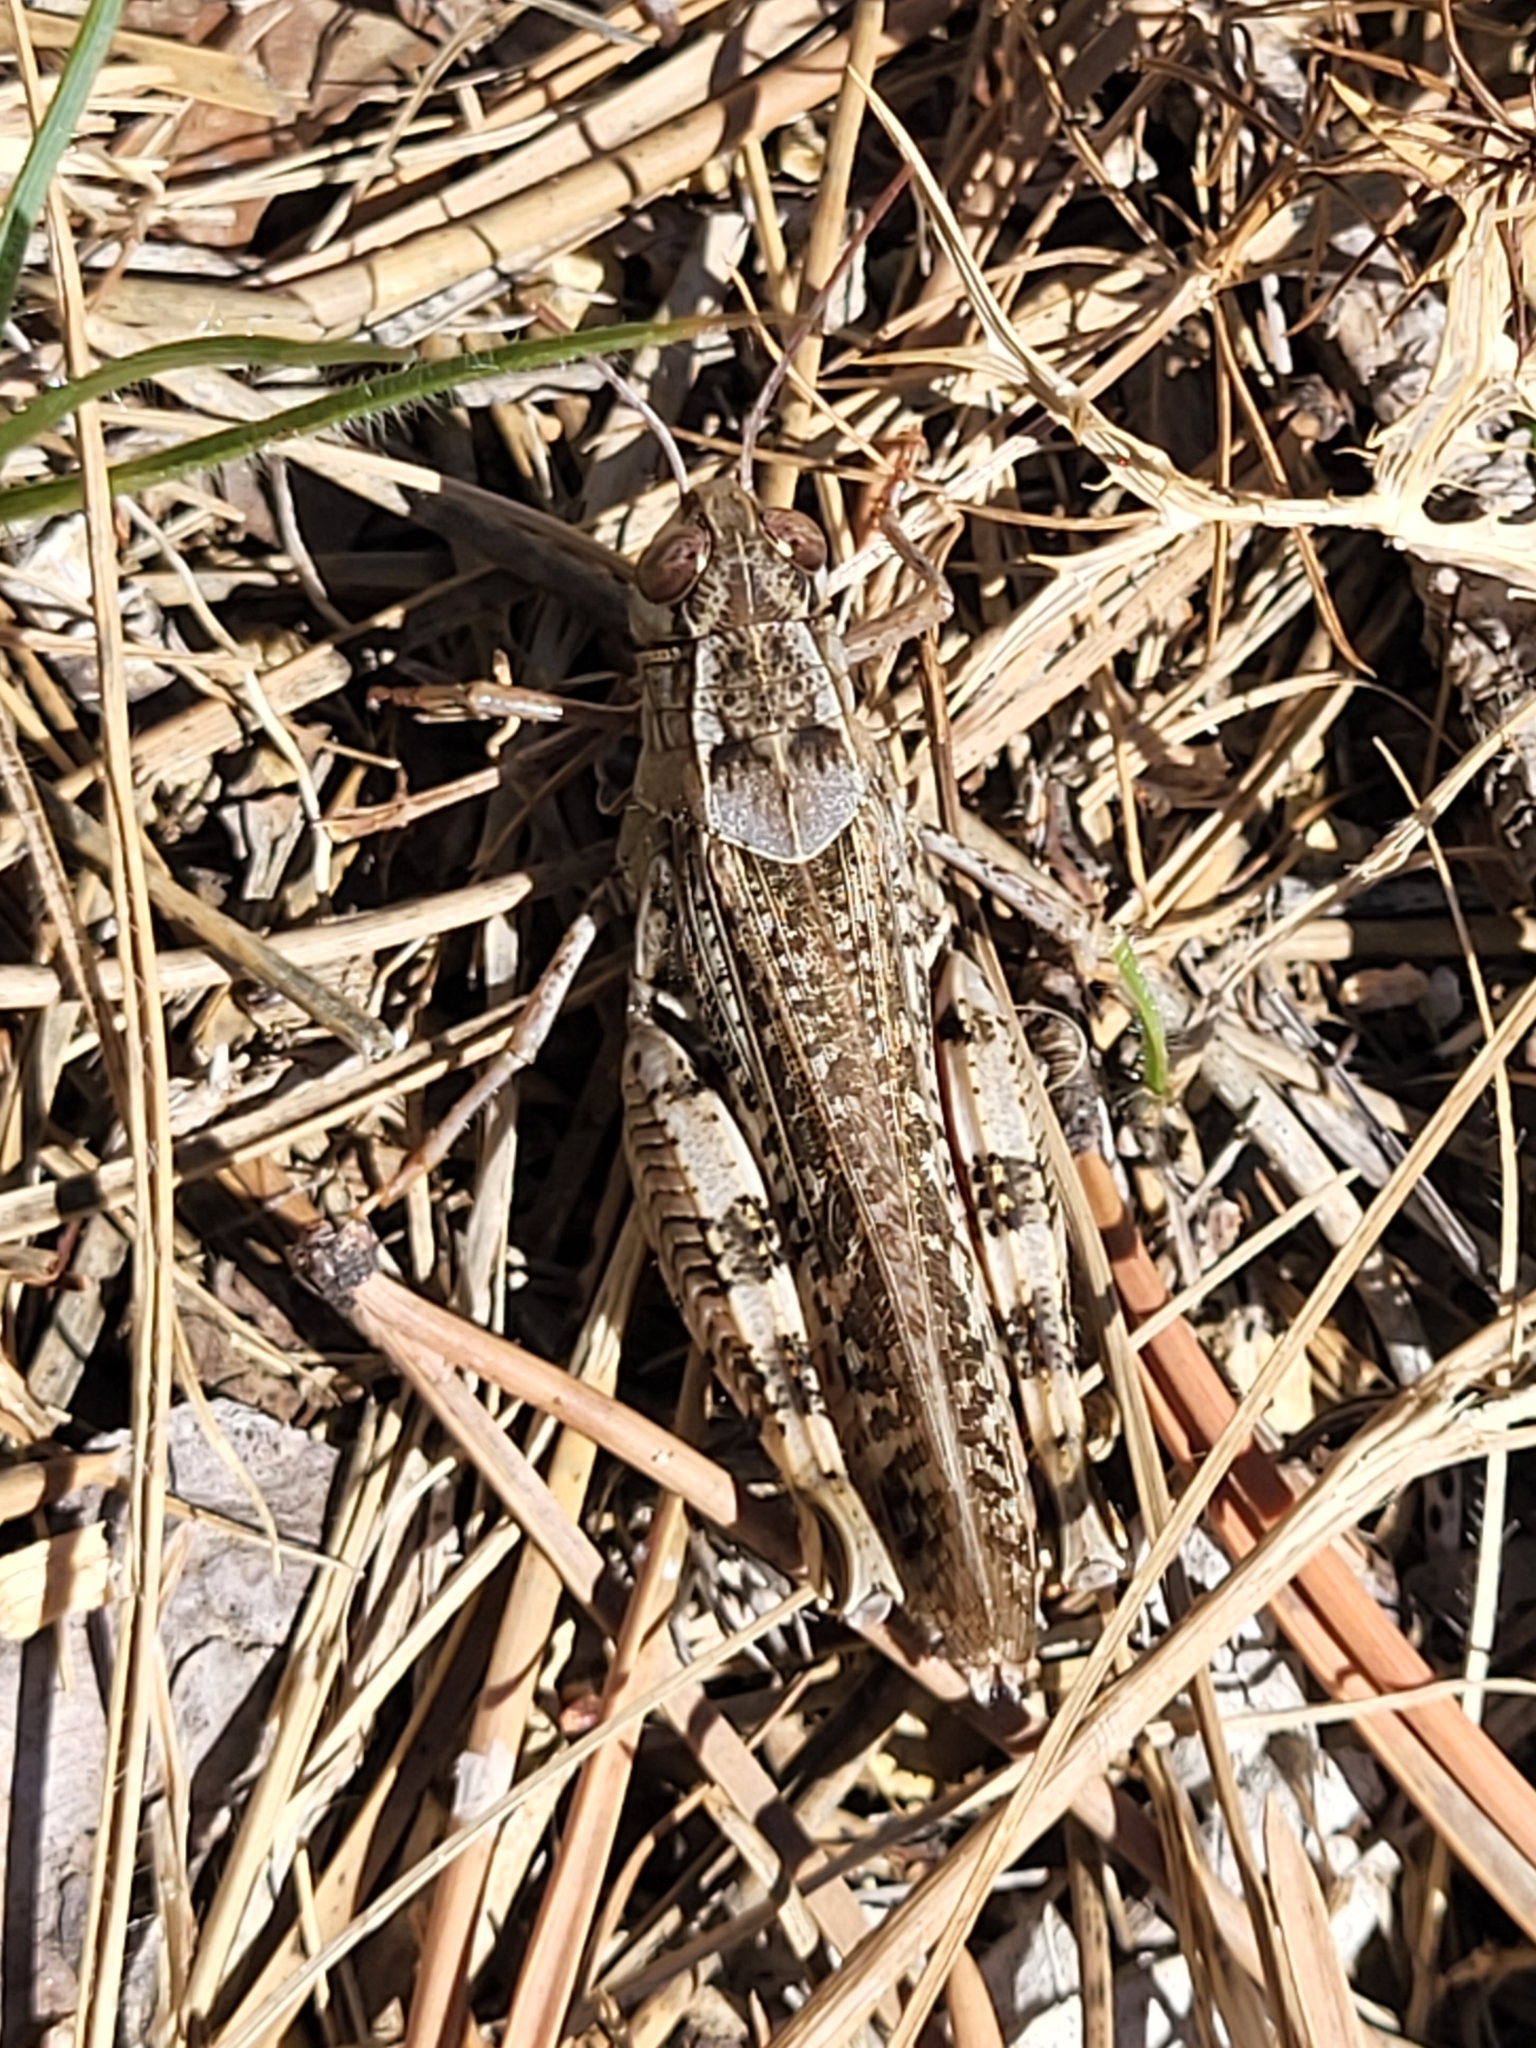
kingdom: Animalia
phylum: Arthropoda
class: Insecta
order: Orthoptera
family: Acrididae
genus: Calliptamus
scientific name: Calliptamus italicus
